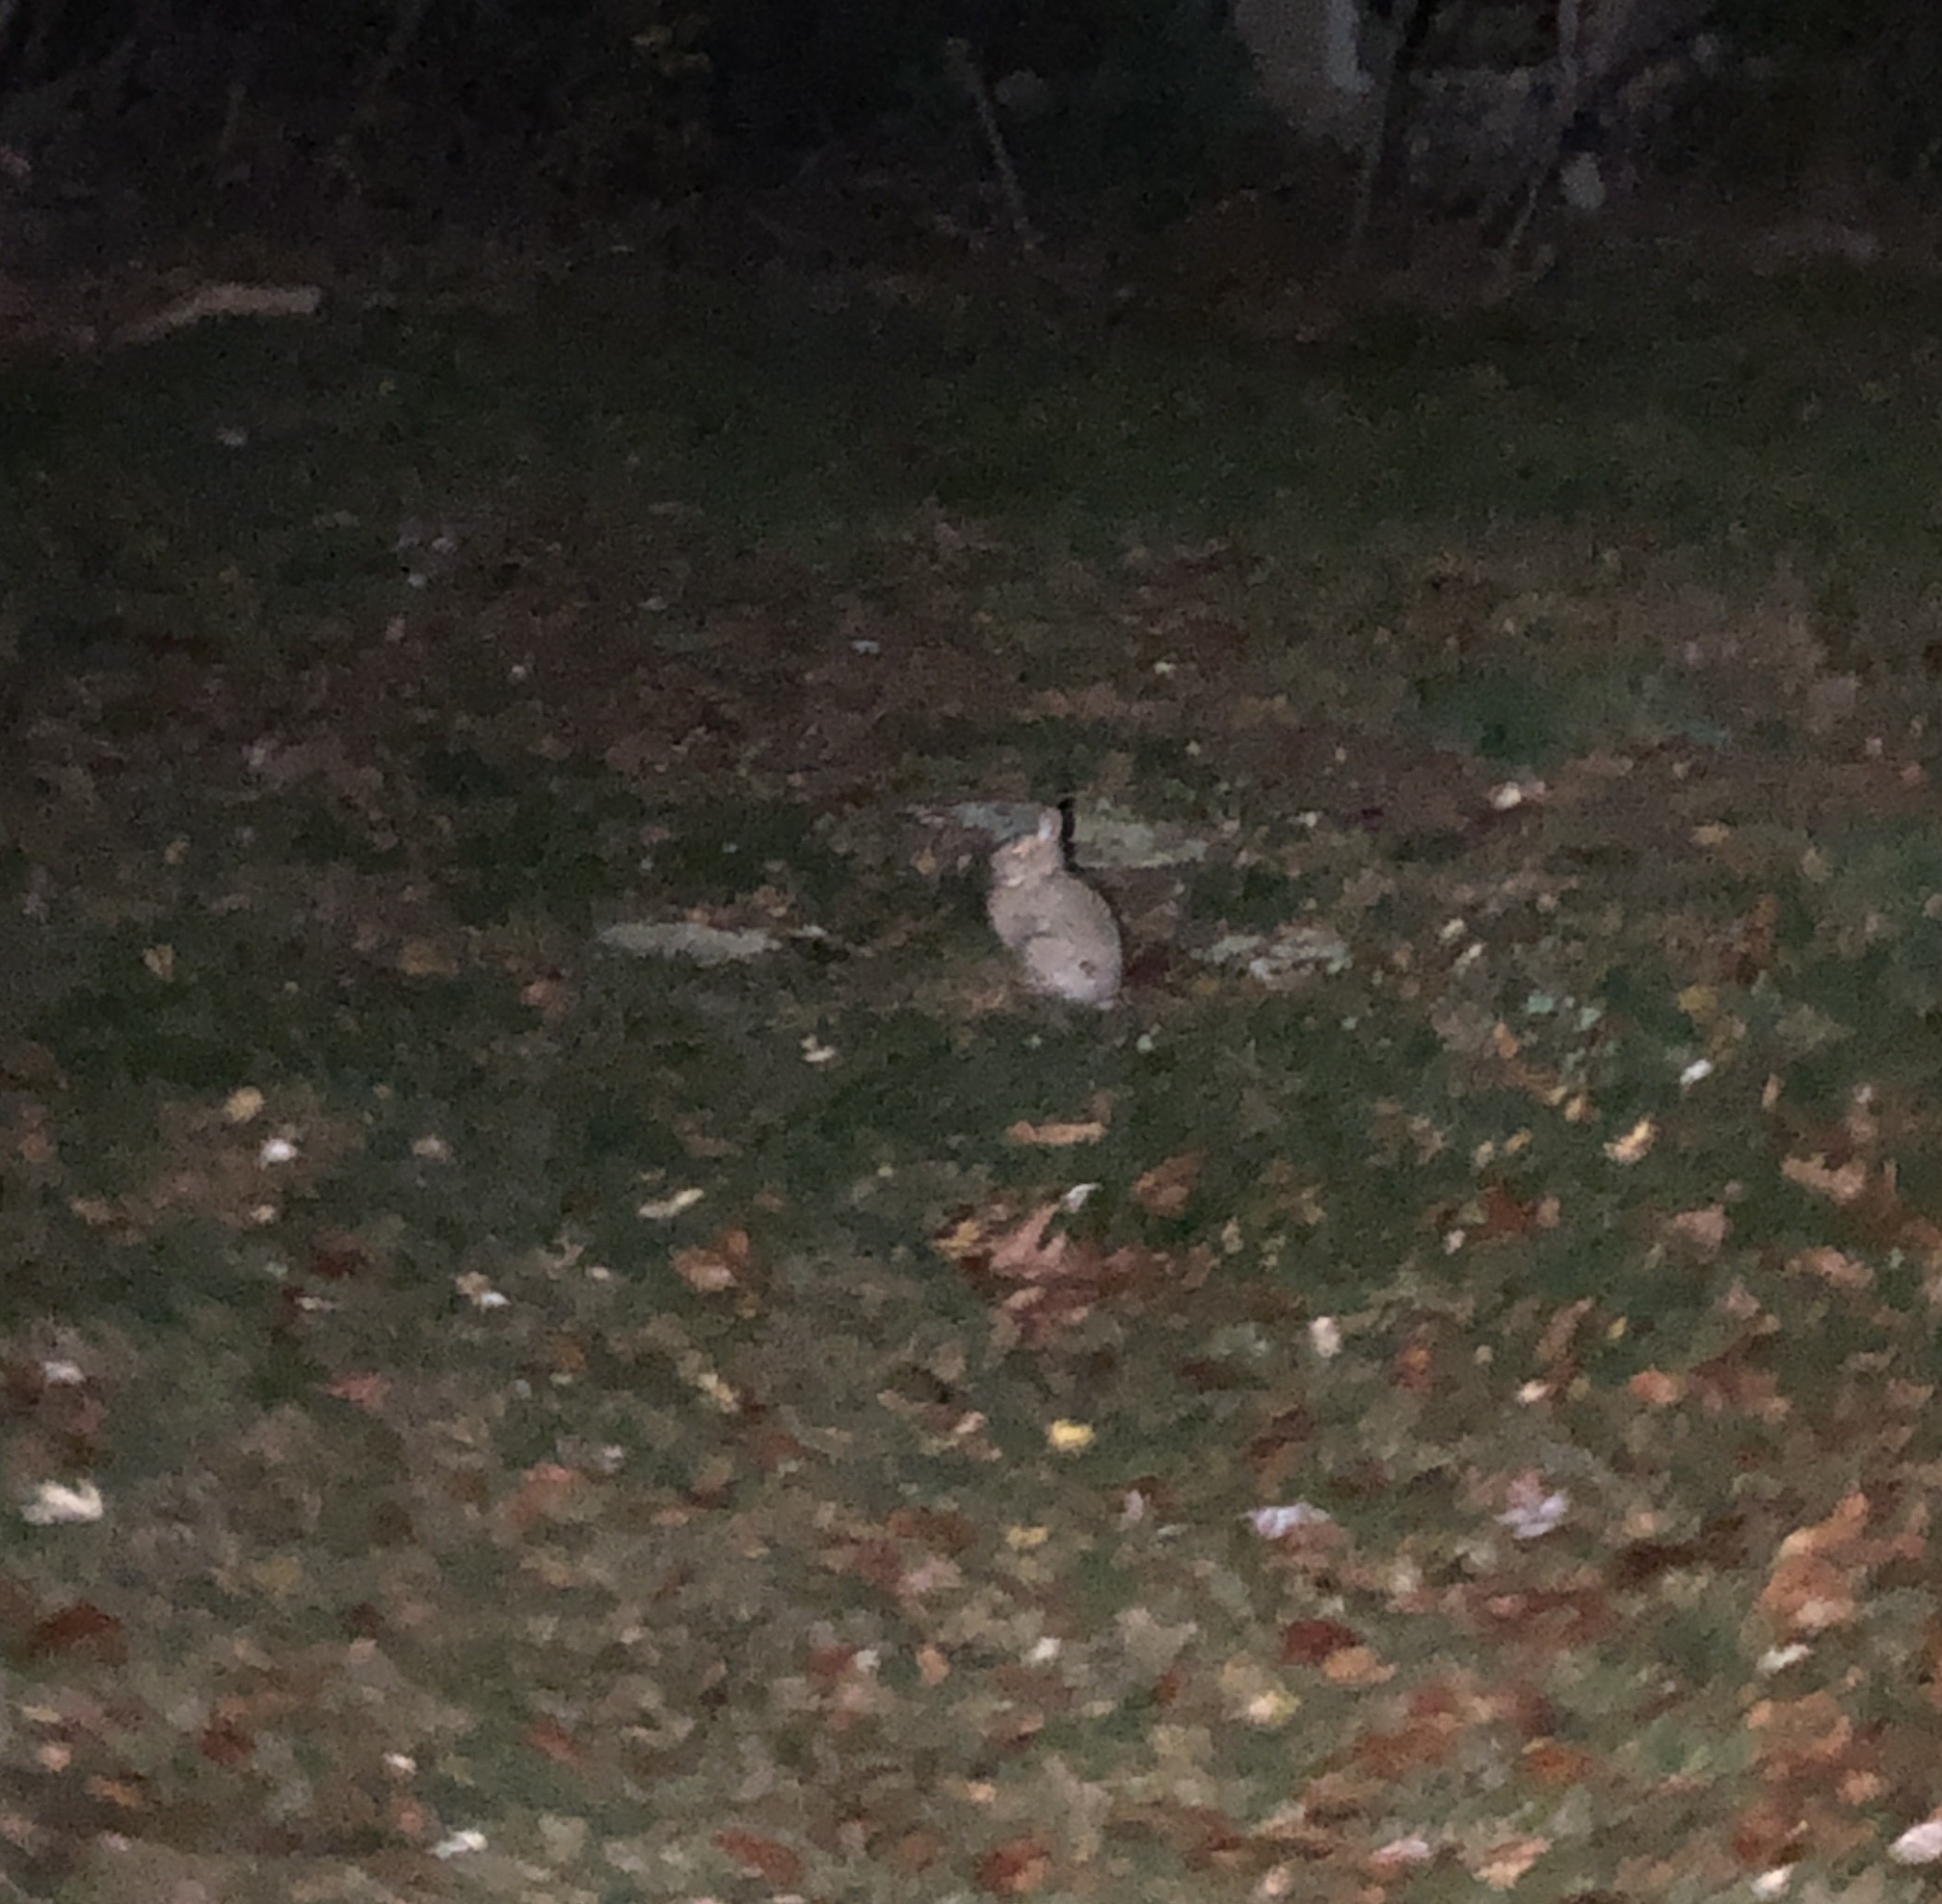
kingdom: Animalia
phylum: Chordata
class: Mammalia
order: Lagomorpha
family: Leporidae
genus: Sylvilagus
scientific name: Sylvilagus floridanus
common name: Eastern cottontail
